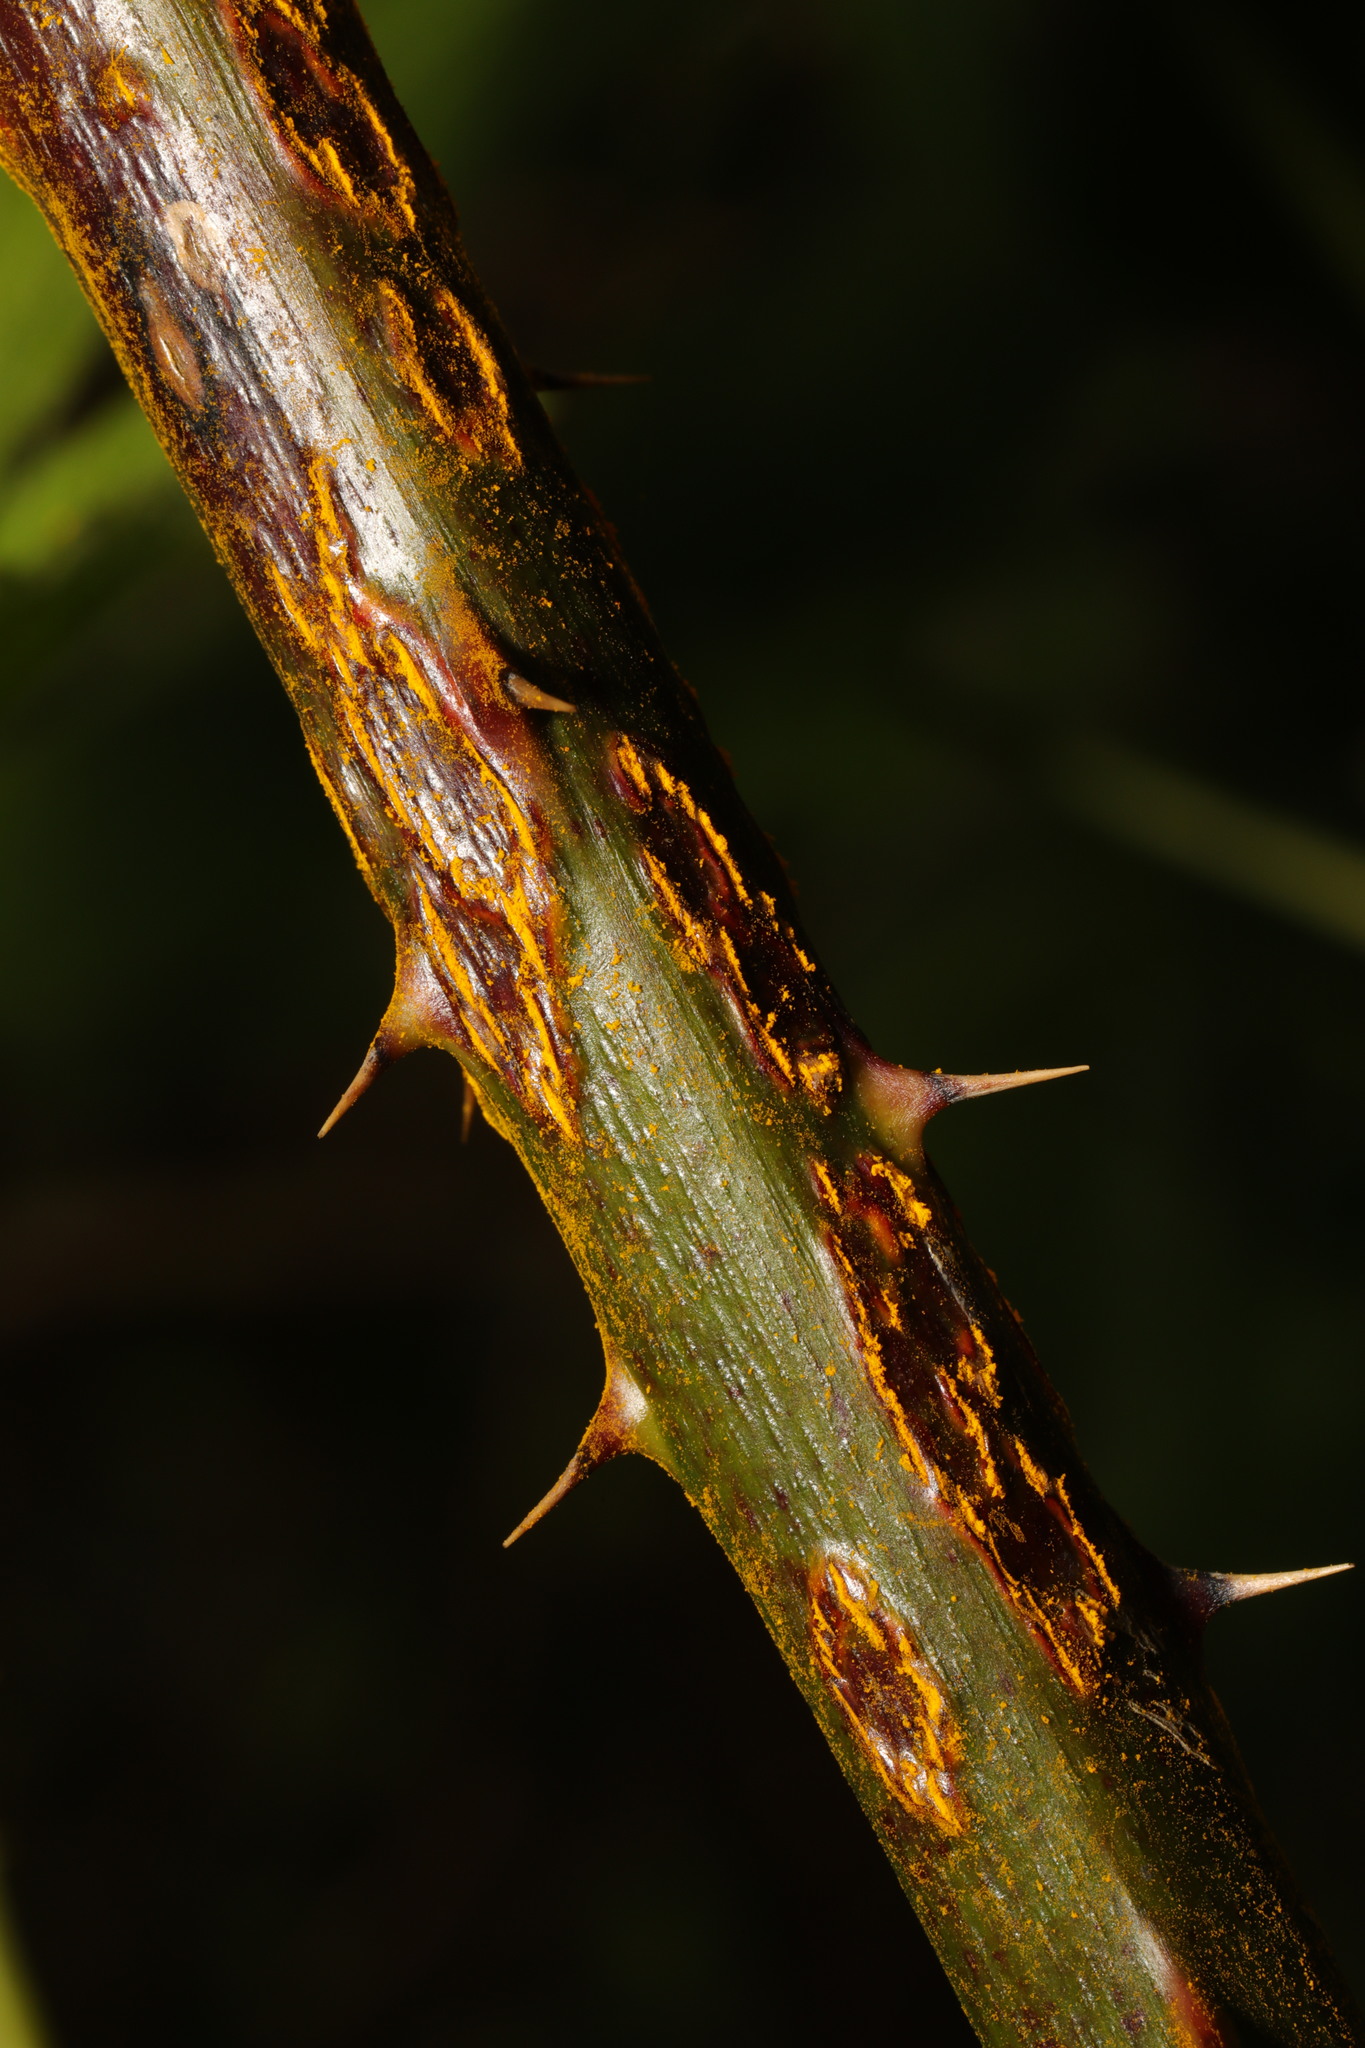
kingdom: Fungi
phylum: Basidiomycota
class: Pucciniomycetes
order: Pucciniales
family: Phragmidiaceae
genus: Kuehneola
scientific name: Kuehneola uredinis
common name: Bramble stem rust
